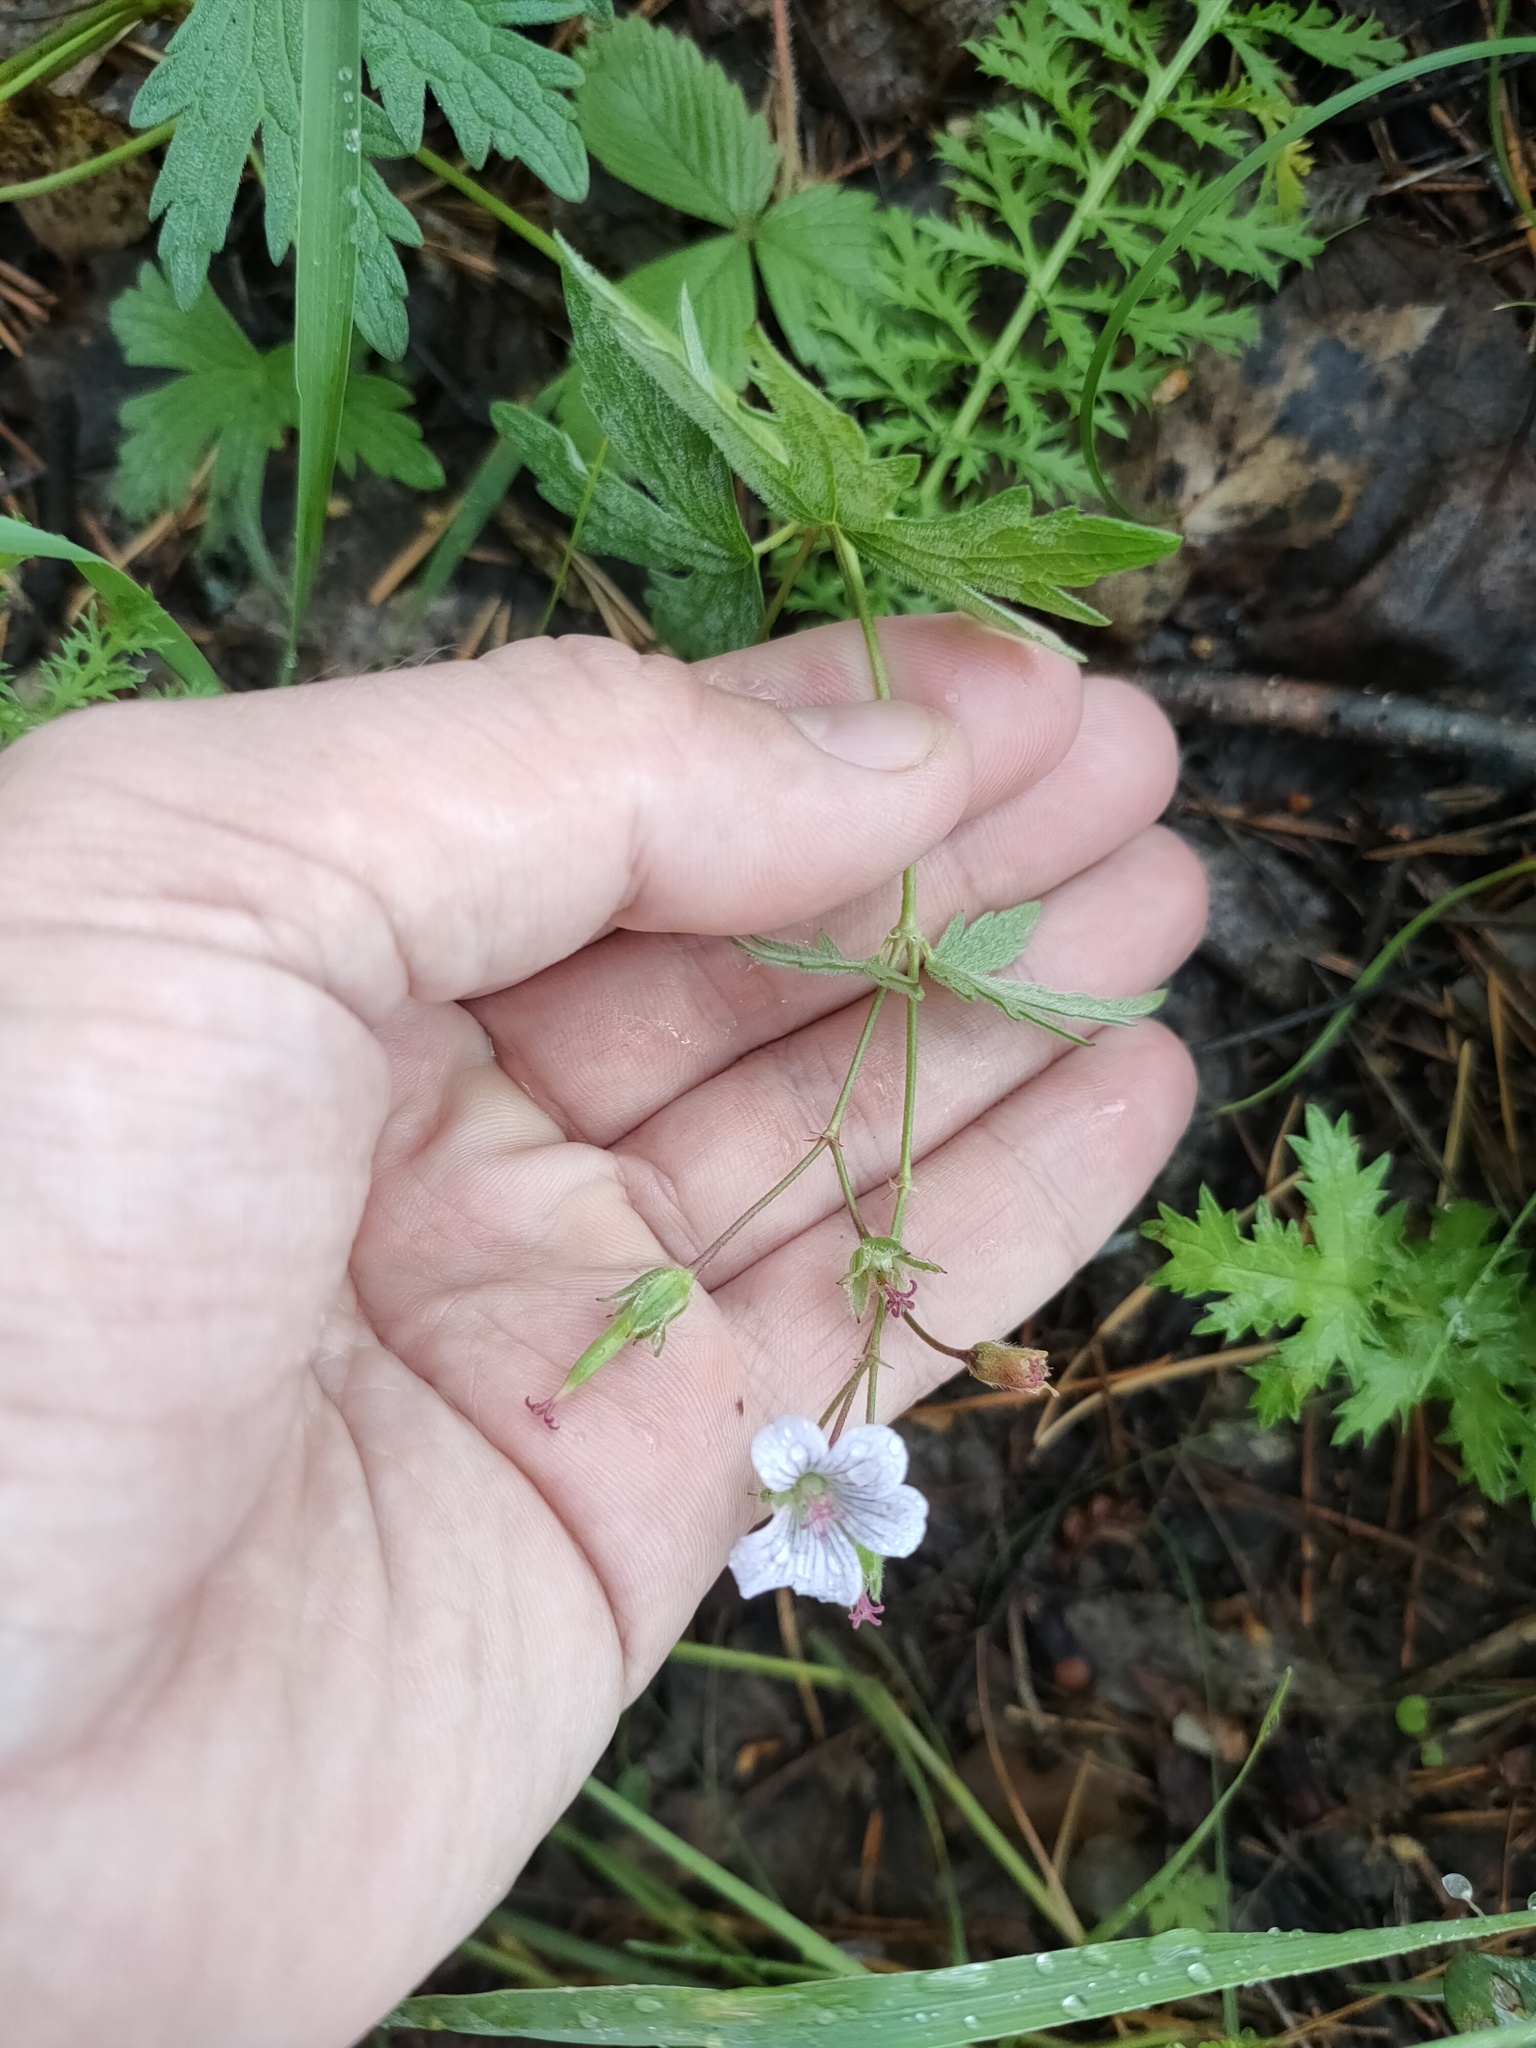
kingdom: Plantae
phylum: Tracheophyta
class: Magnoliopsida
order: Geraniales
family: Geraniaceae
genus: Geranium
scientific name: Geranium pseudosibiricum
